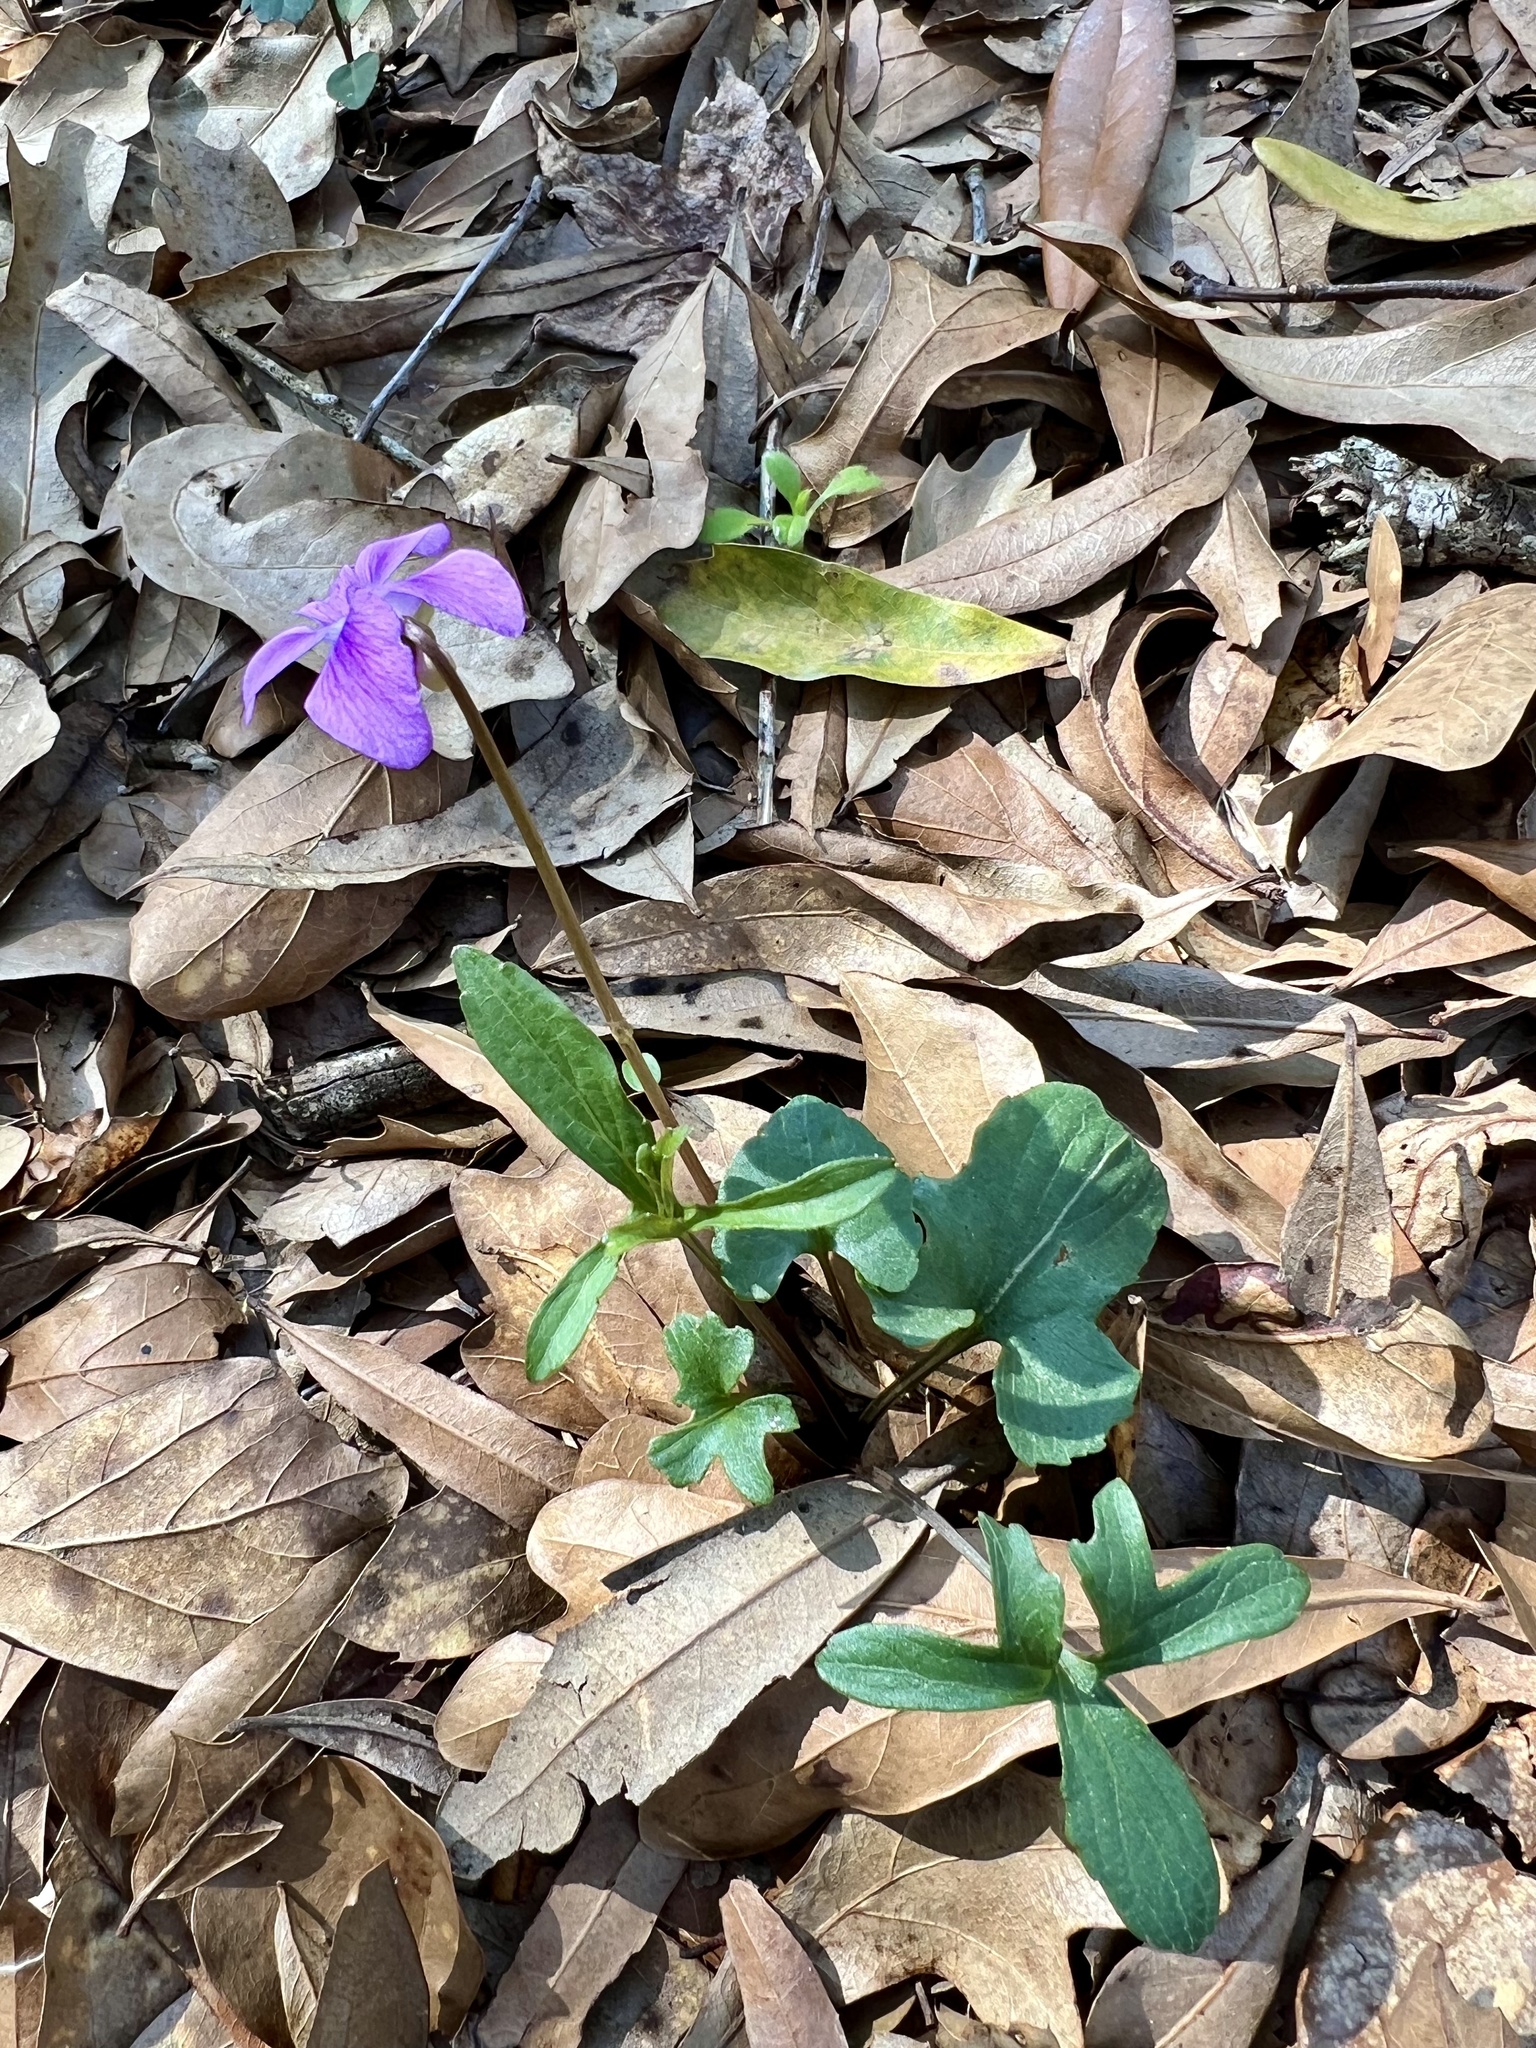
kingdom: Plantae
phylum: Tracheophyta
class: Magnoliopsida
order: Malpighiales
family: Violaceae
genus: Viola
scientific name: Viola palmata
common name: Early blue violet
